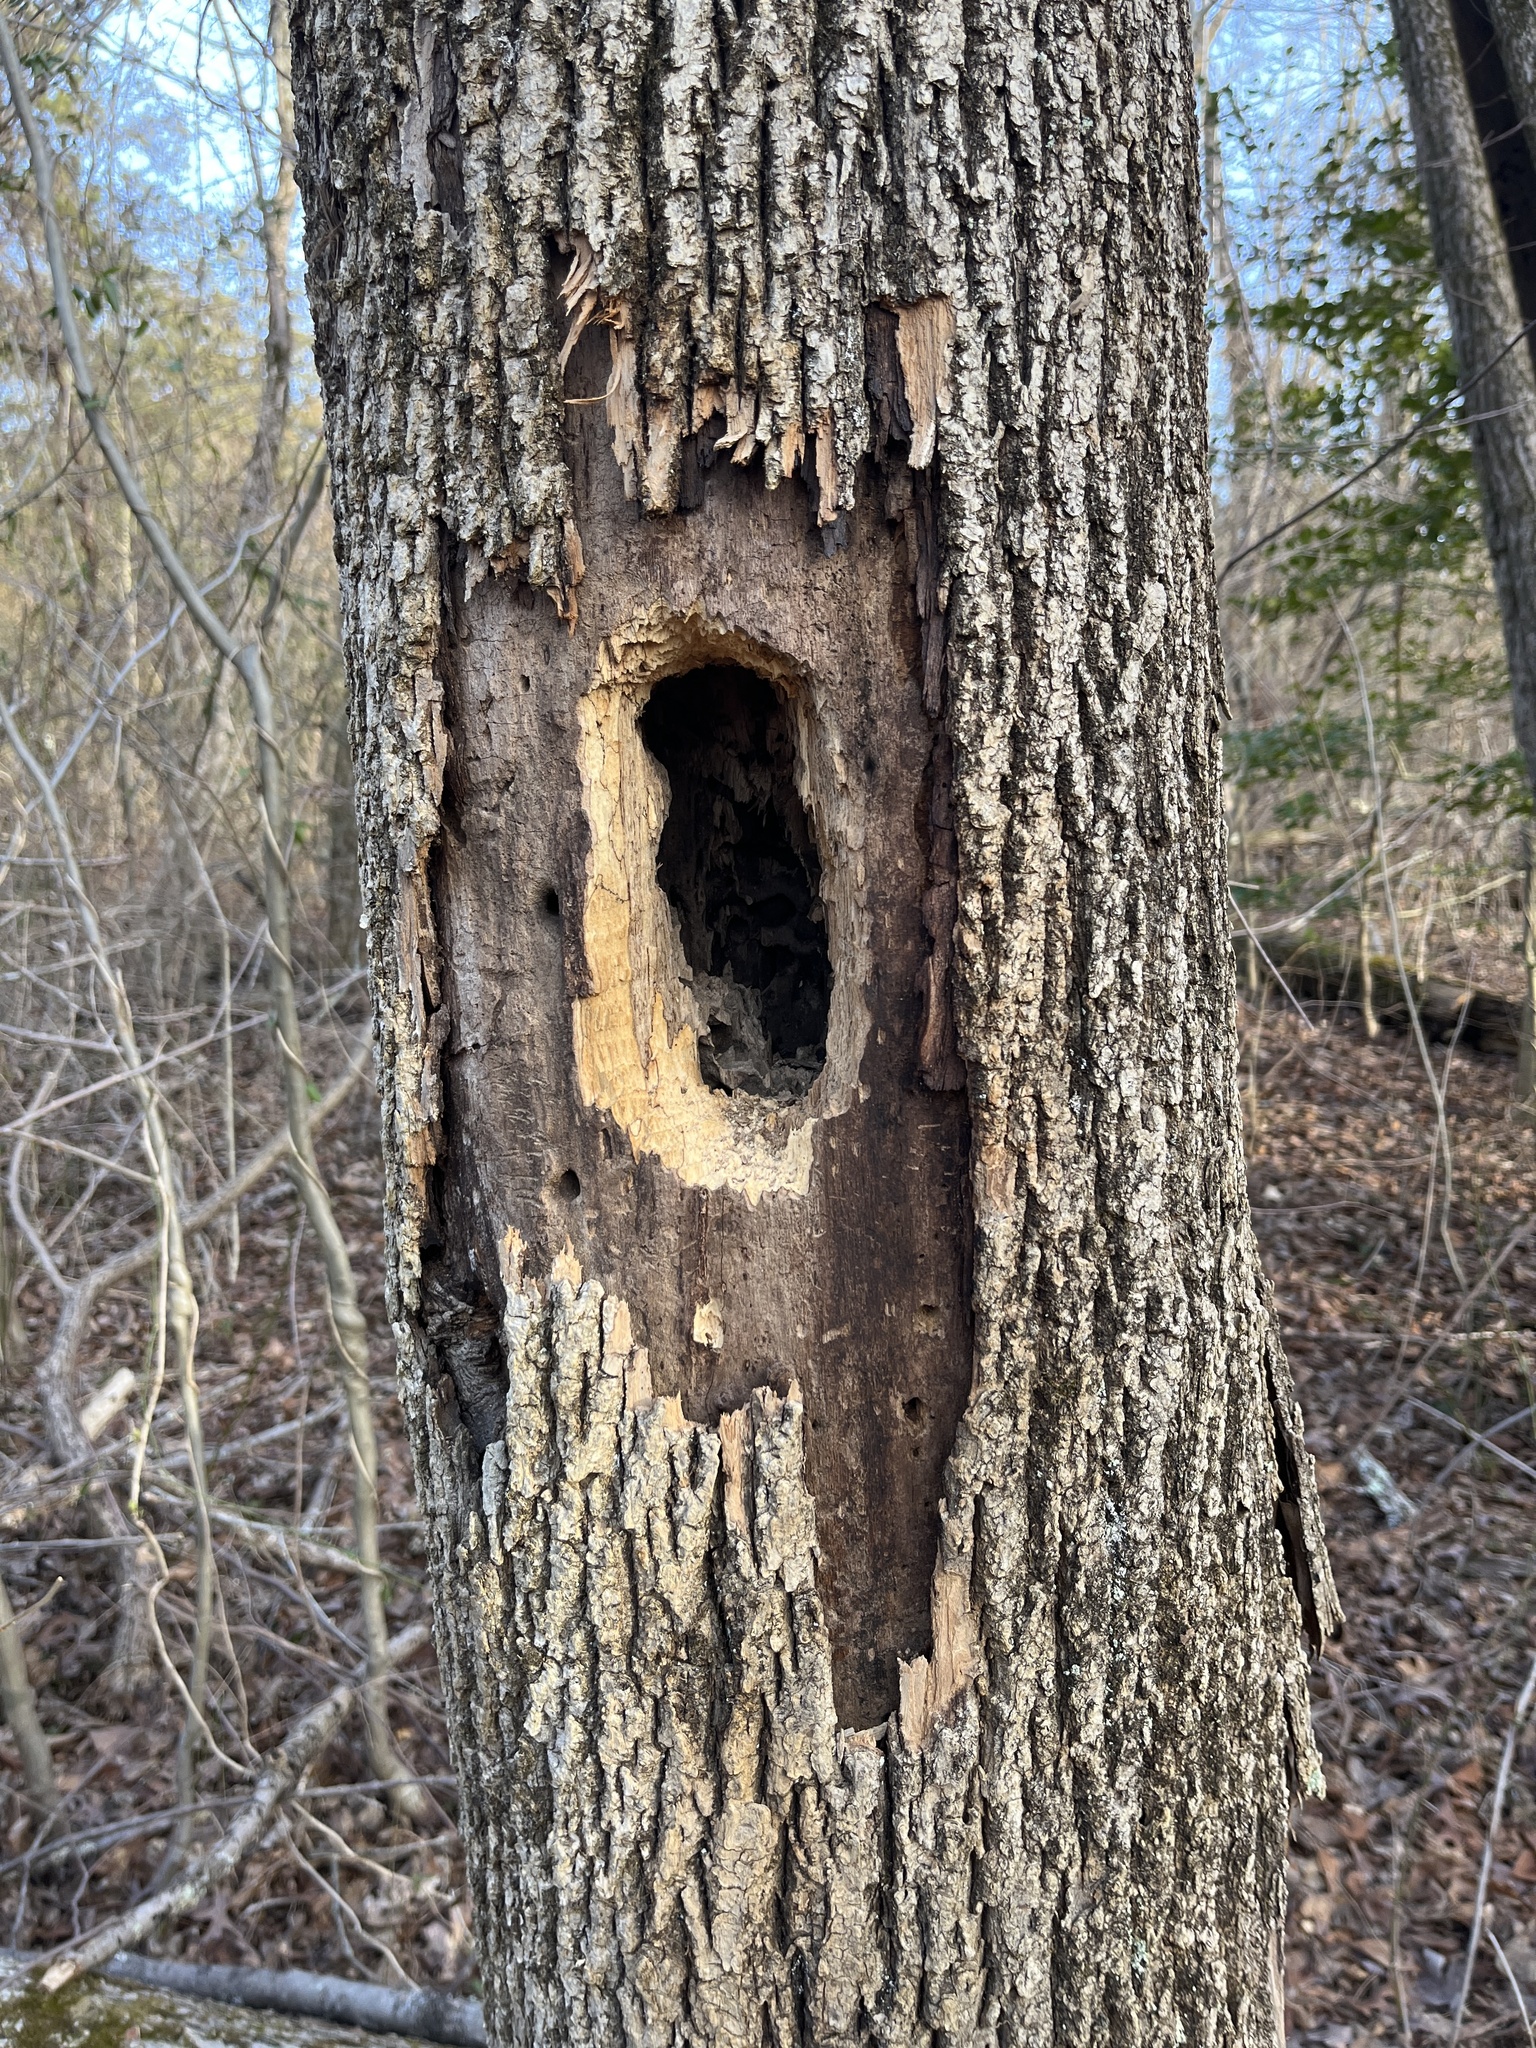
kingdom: Animalia
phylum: Chordata
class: Aves
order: Piciformes
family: Picidae
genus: Dryocopus
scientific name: Dryocopus pileatus
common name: Pileated woodpecker
